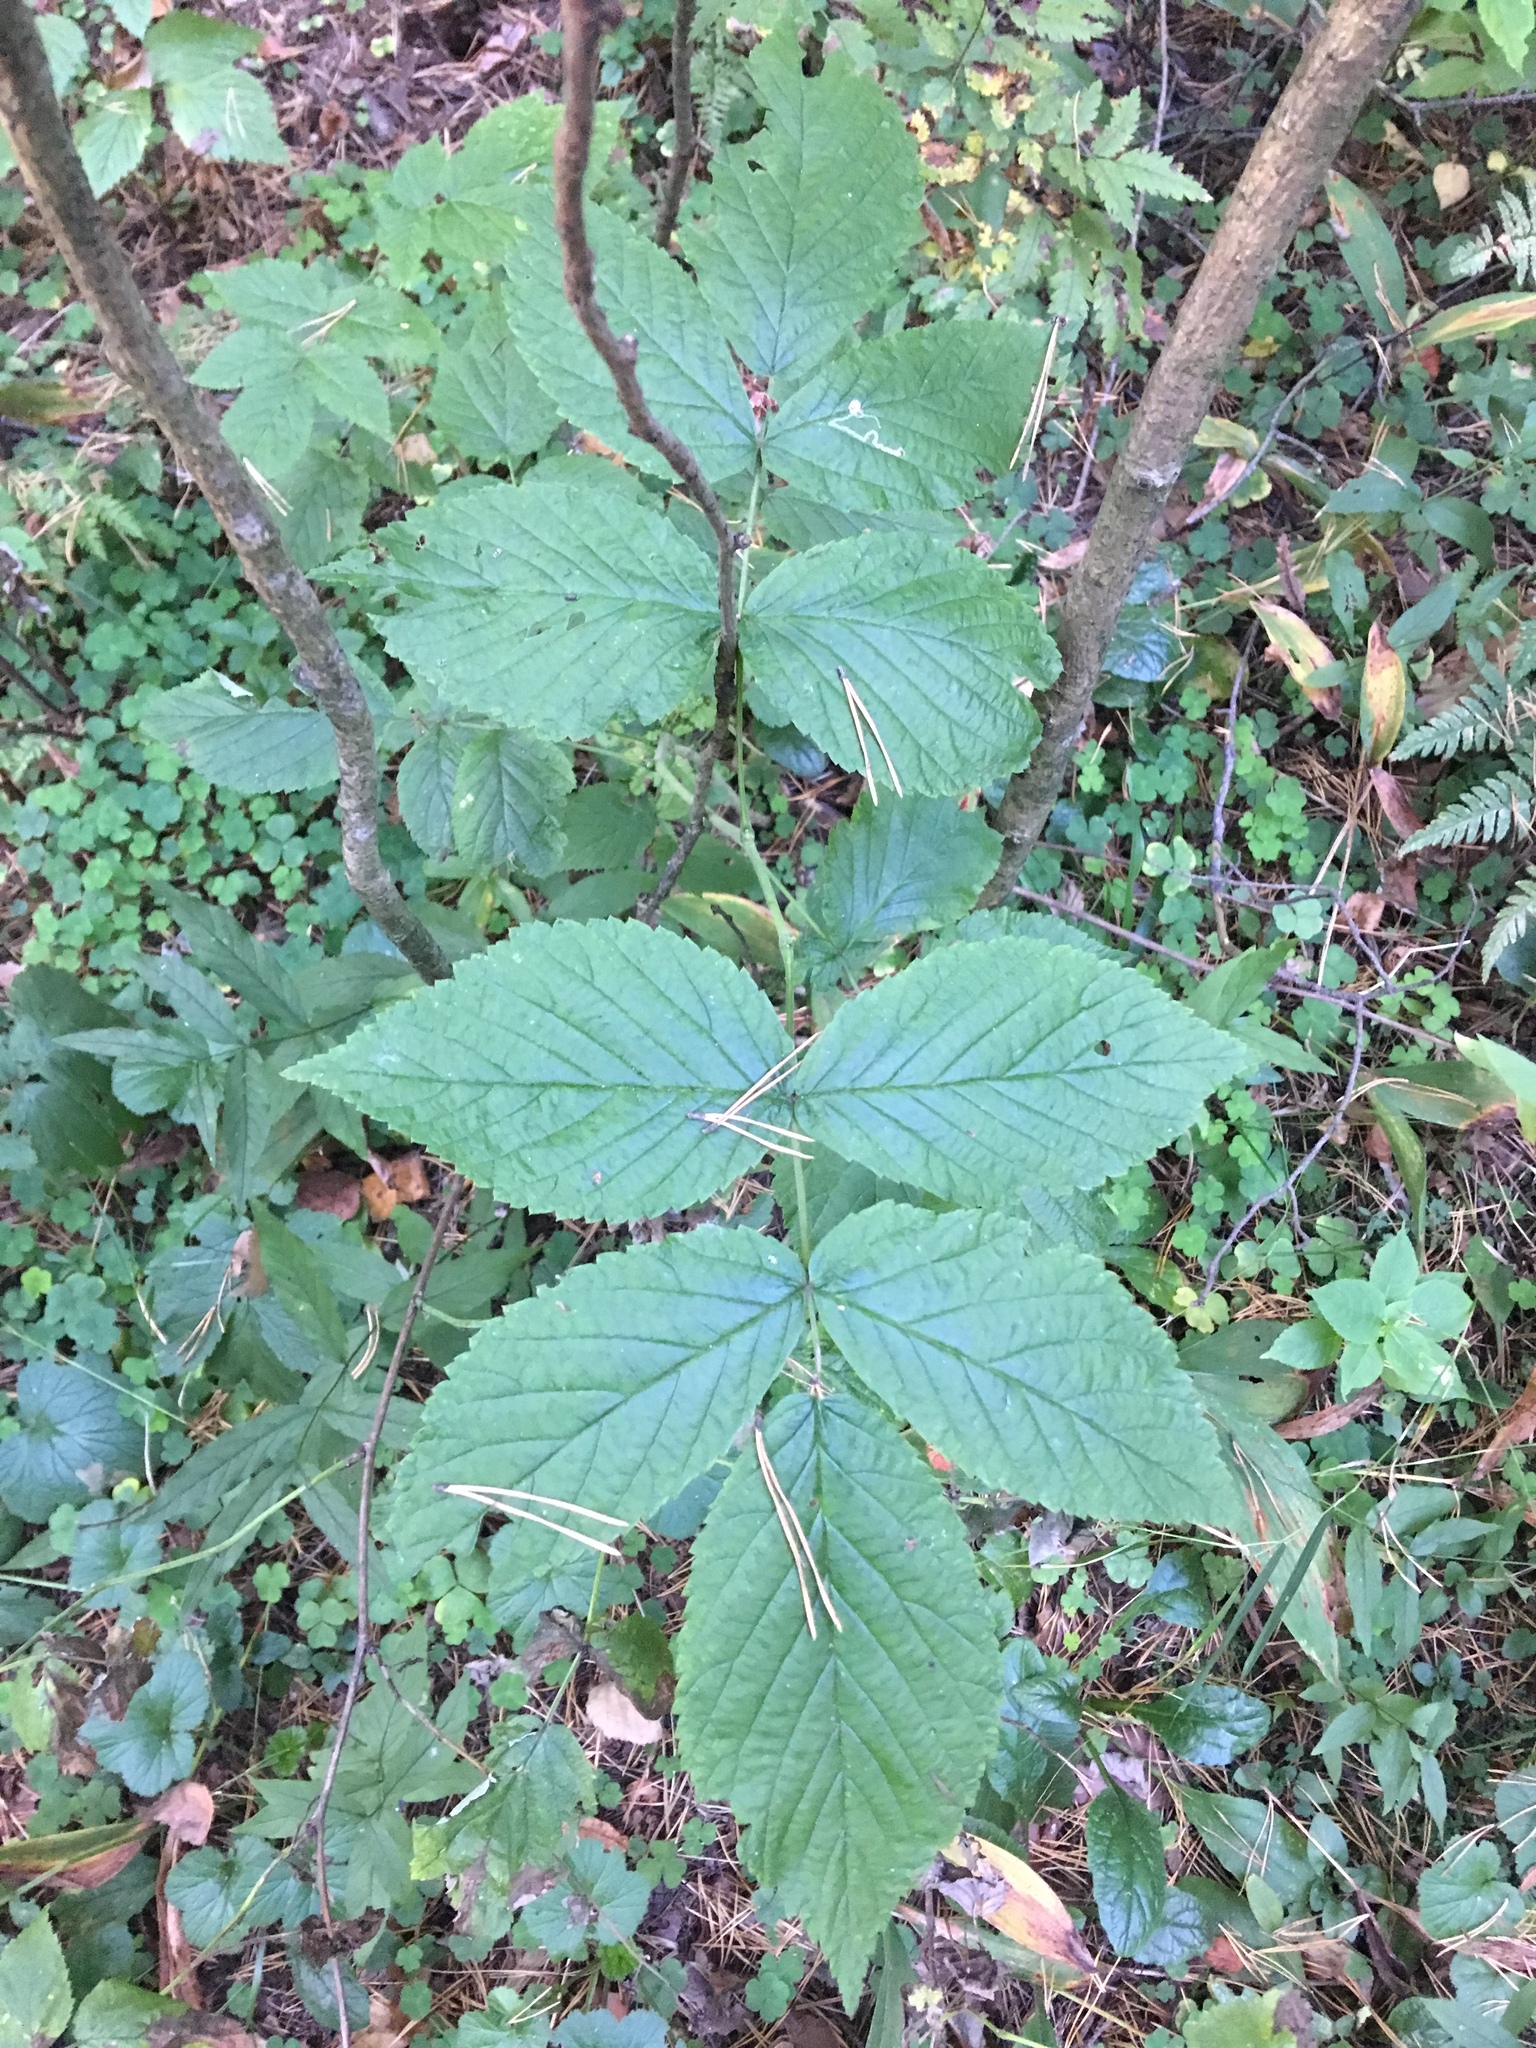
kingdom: Plantae
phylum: Tracheophyta
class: Magnoliopsida
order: Rosales
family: Rosaceae
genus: Rubus
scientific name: Rubus idaeus
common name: Raspberry
